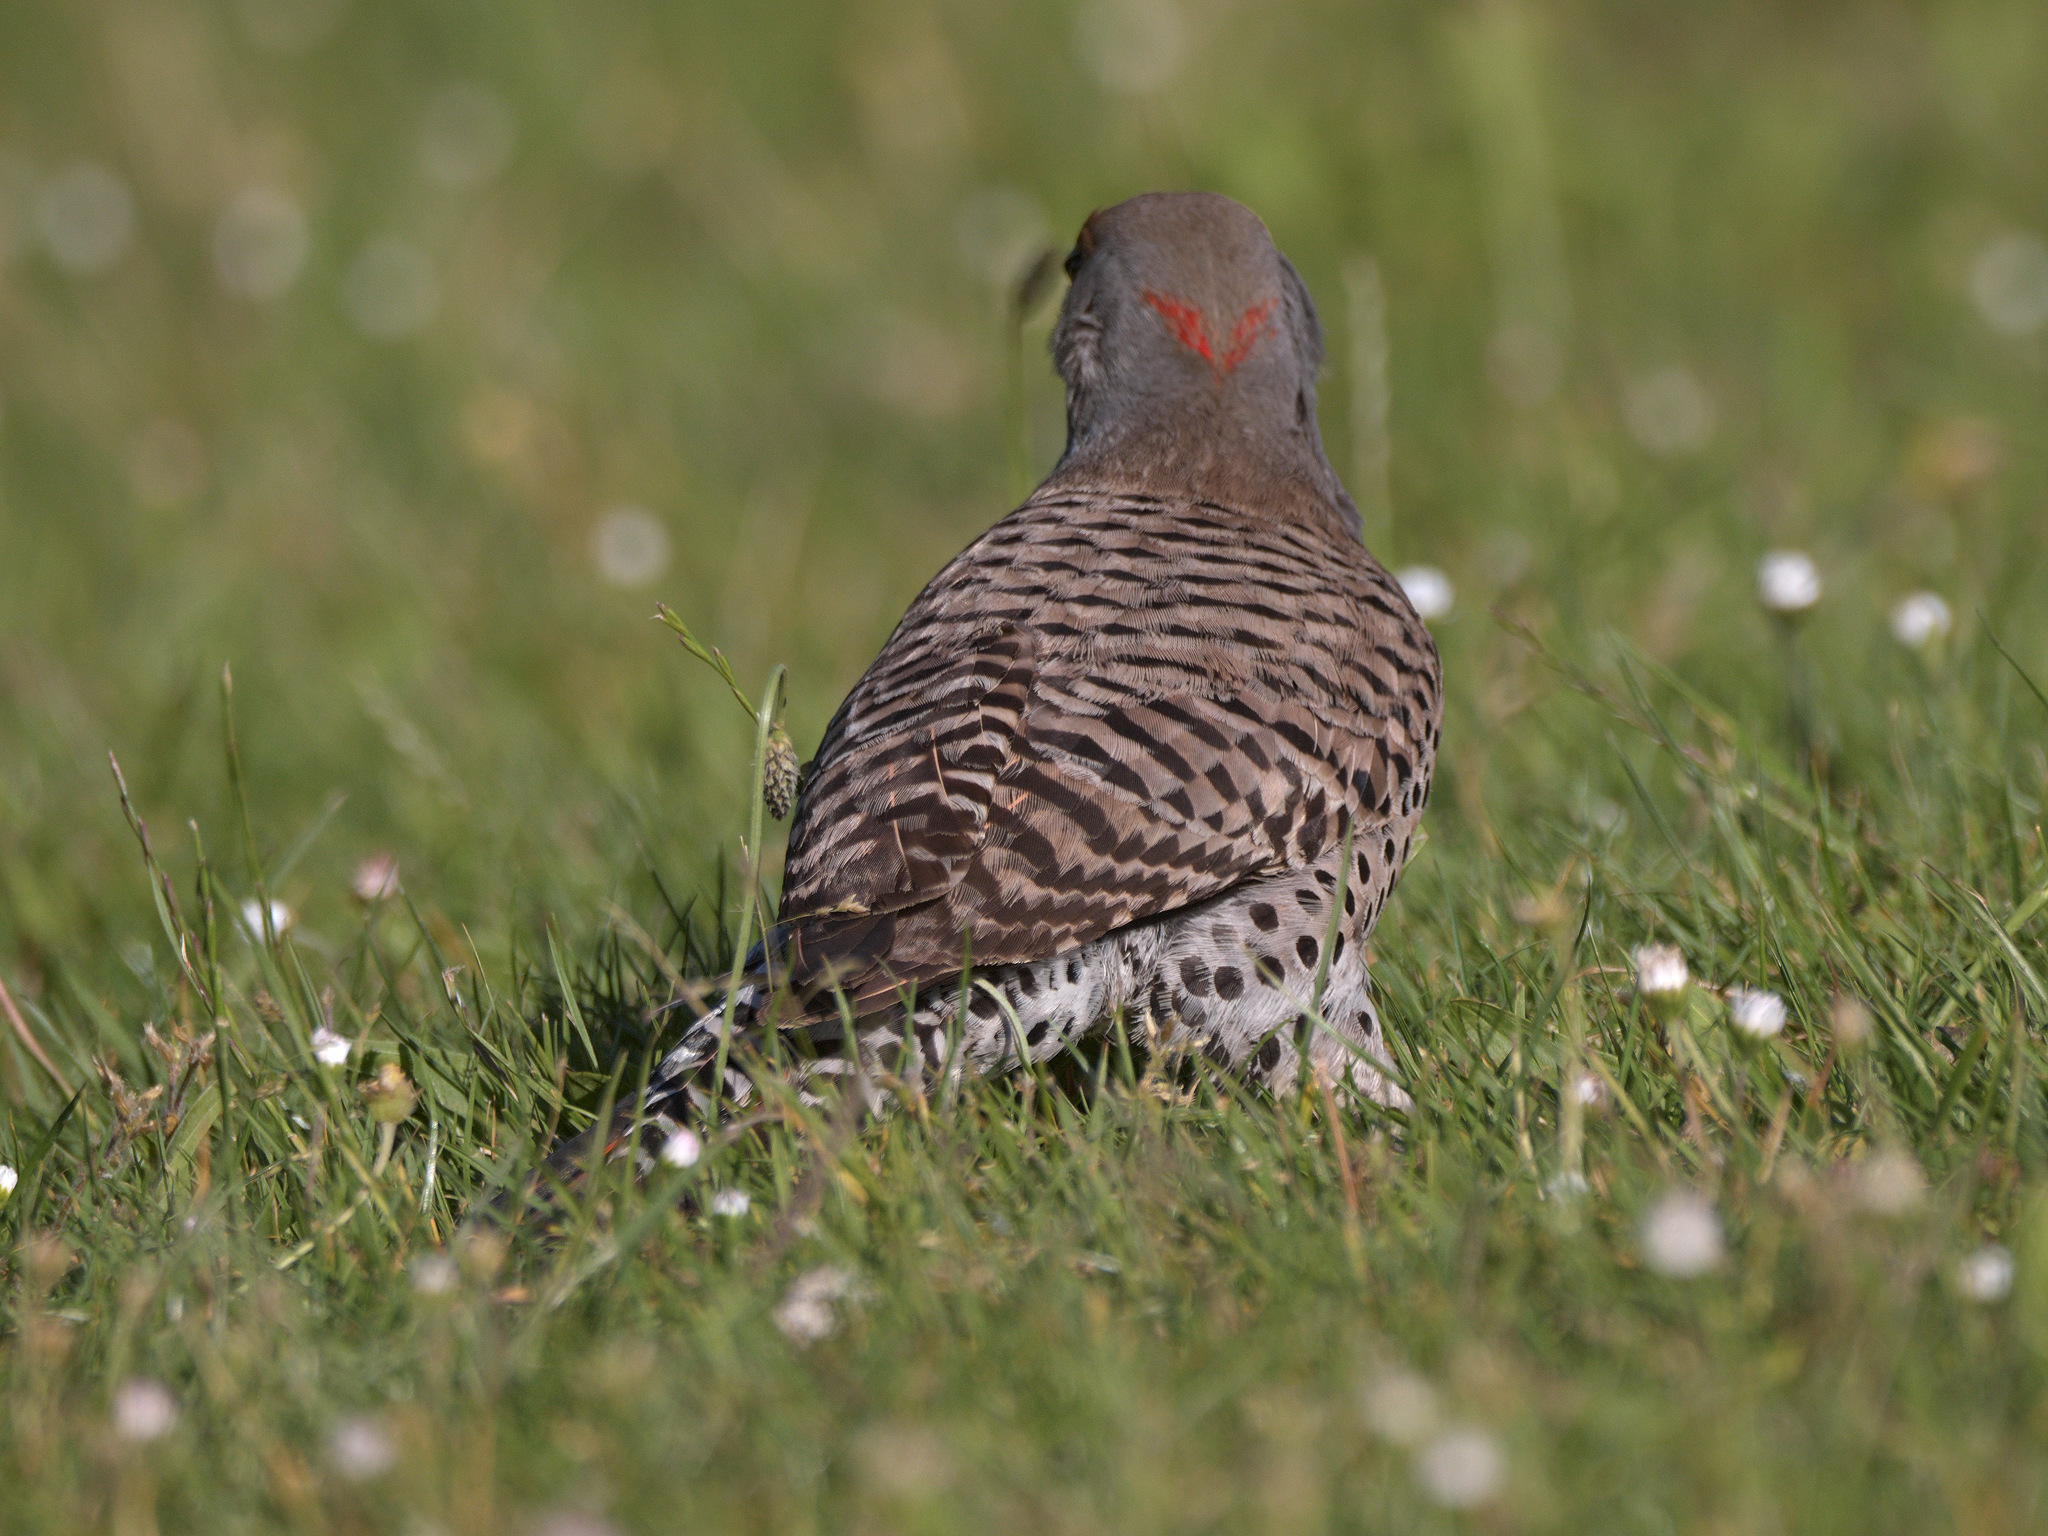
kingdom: Animalia
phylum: Chordata
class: Aves
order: Piciformes
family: Picidae
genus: Colaptes
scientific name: Colaptes
